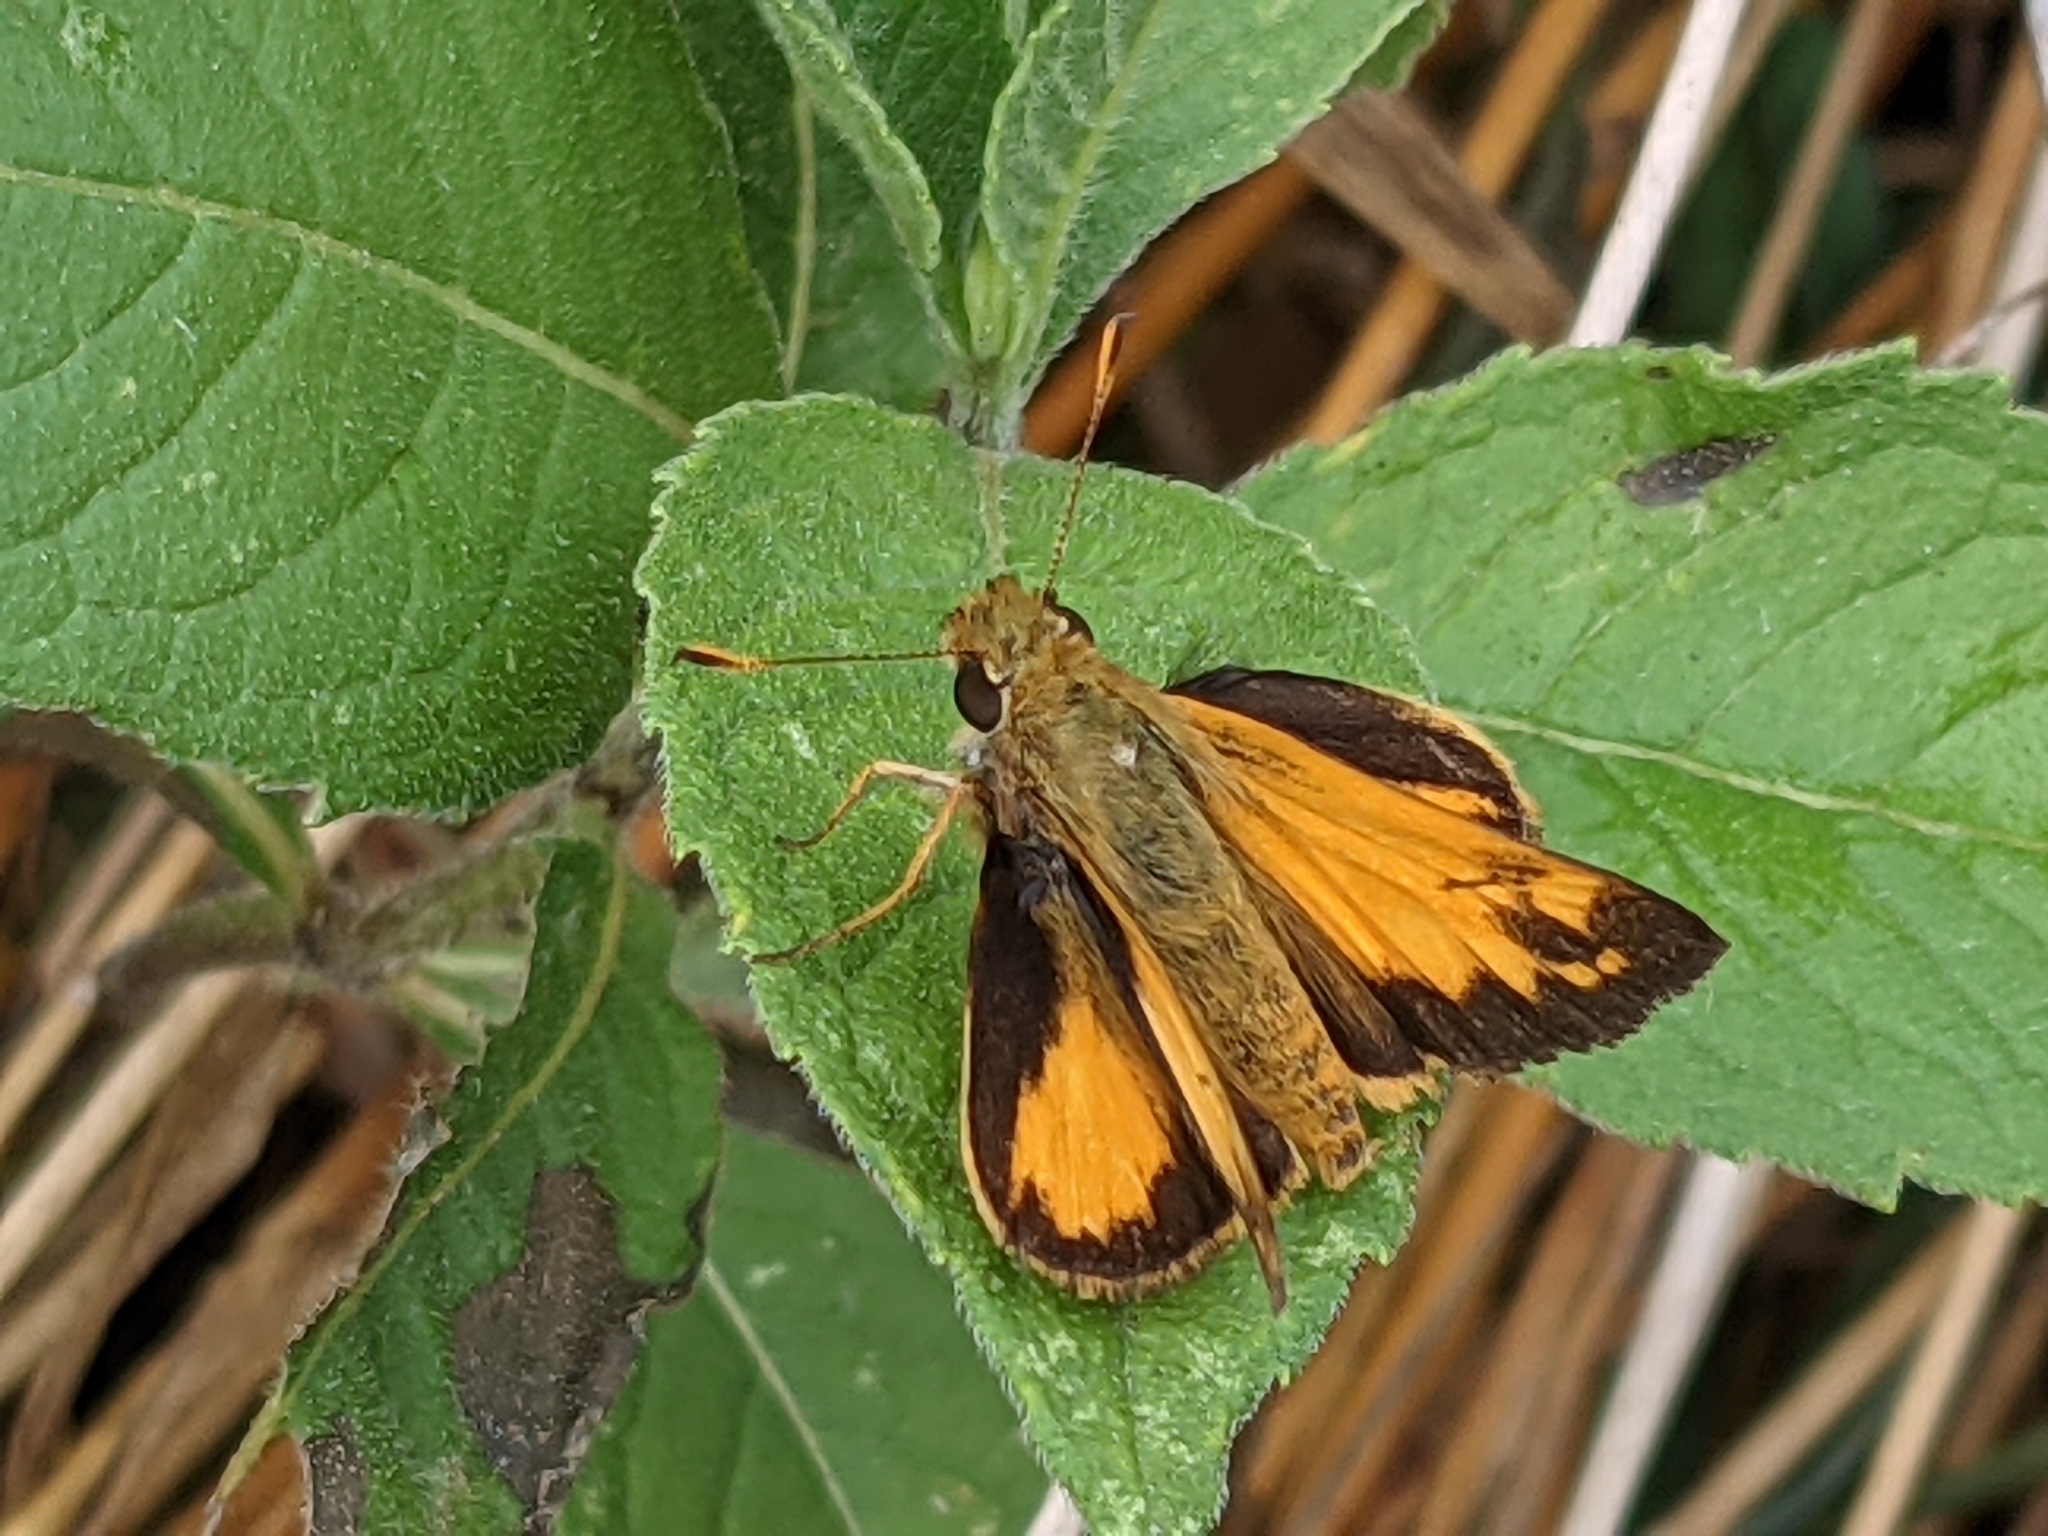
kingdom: Animalia
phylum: Arthropoda
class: Insecta
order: Lepidoptera
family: Hesperiidae
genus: Lon
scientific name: Lon zabulon
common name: Zabulon skipper
